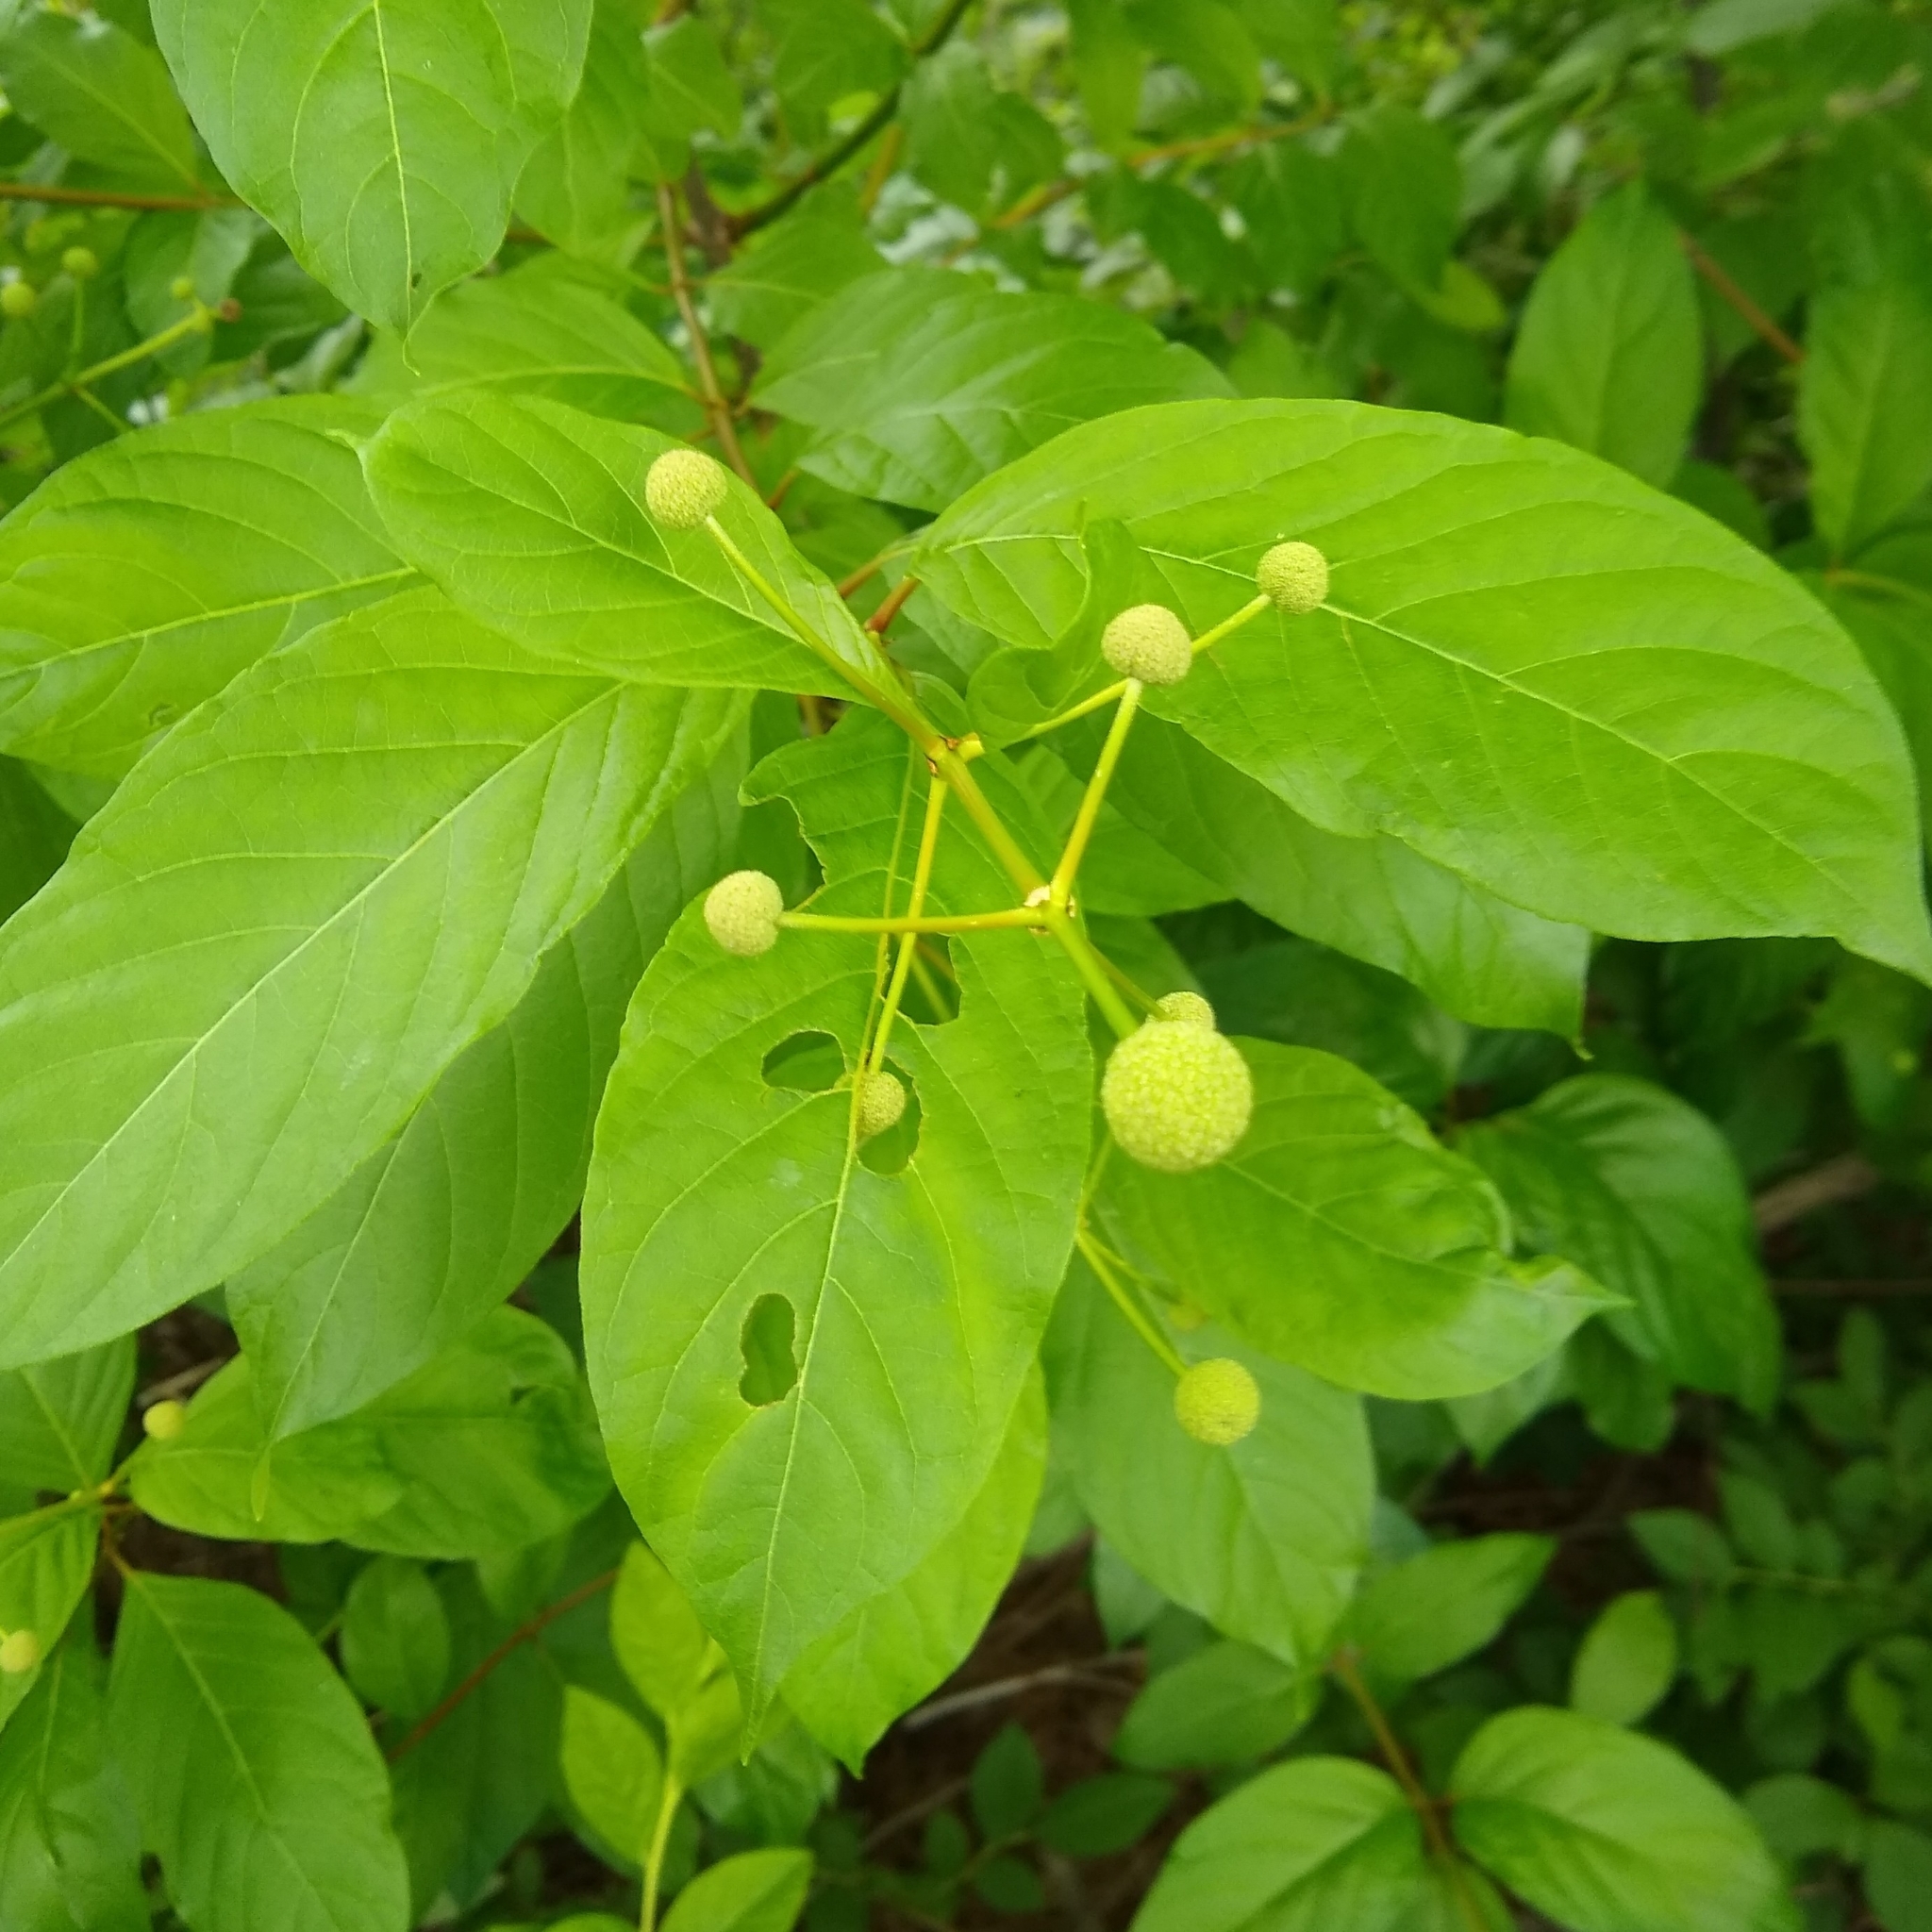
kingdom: Plantae
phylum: Tracheophyta
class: Magnoliopsida
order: Gentianales
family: Rubiaceae
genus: Cephalanthus
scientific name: Cephalanthus occidentalis
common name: Button-willow
